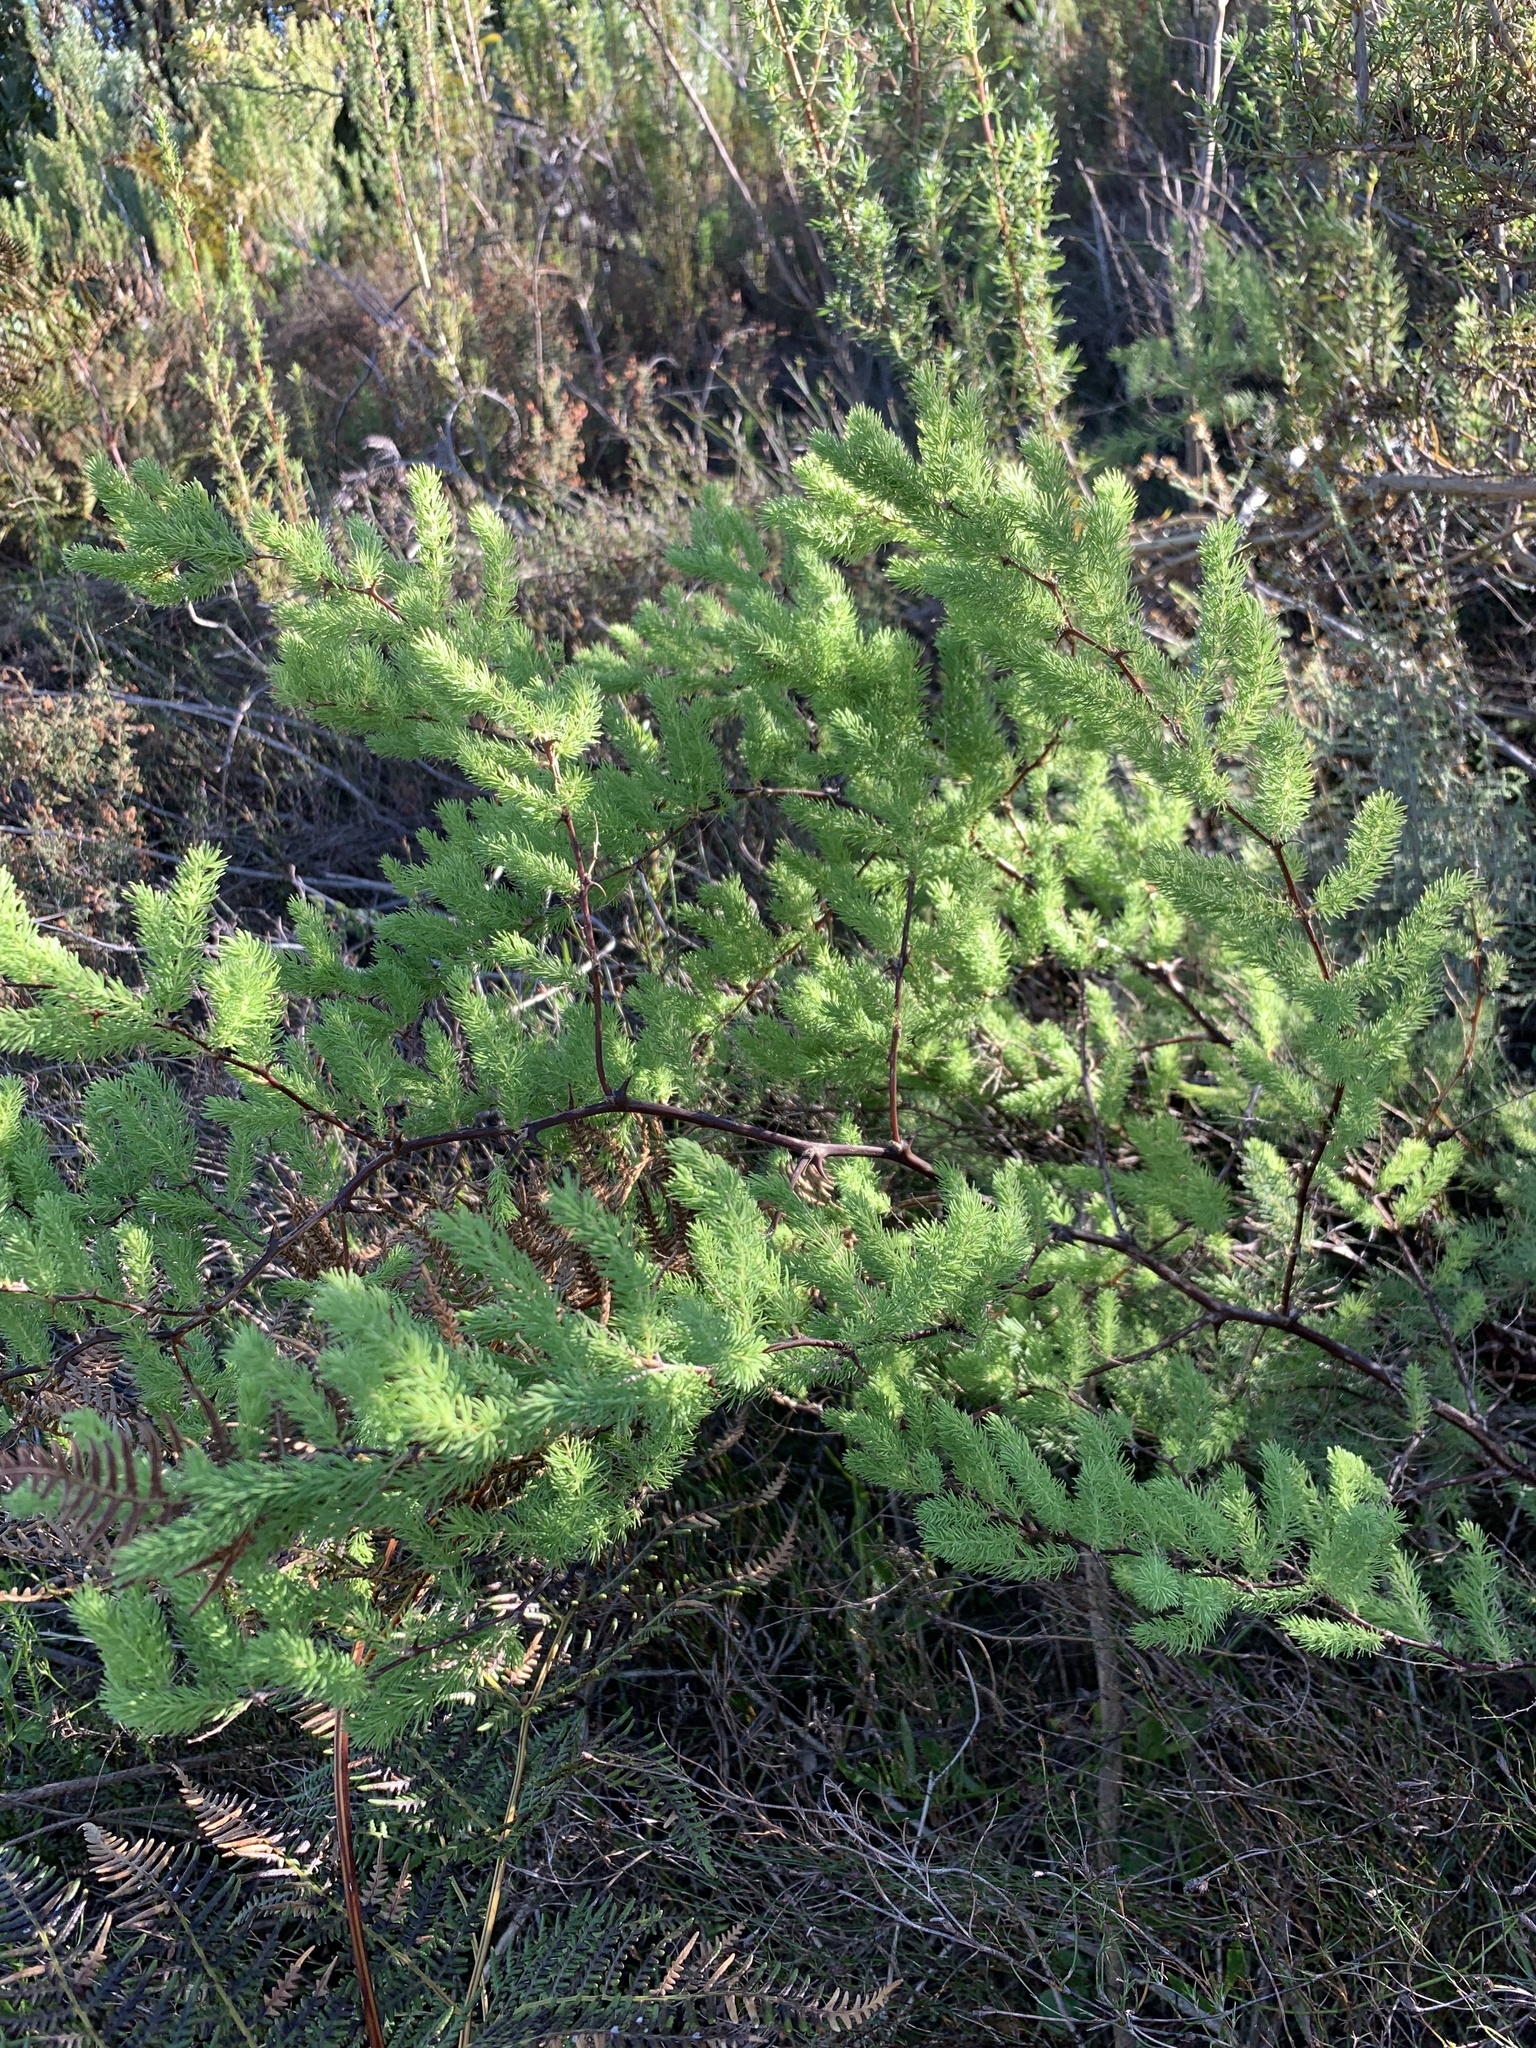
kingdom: Plantae
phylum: Tracheophyta
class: Liliopsida
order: Asparagales
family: Asparagaceae
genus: Asparagus
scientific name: Asparagus rubicundus
